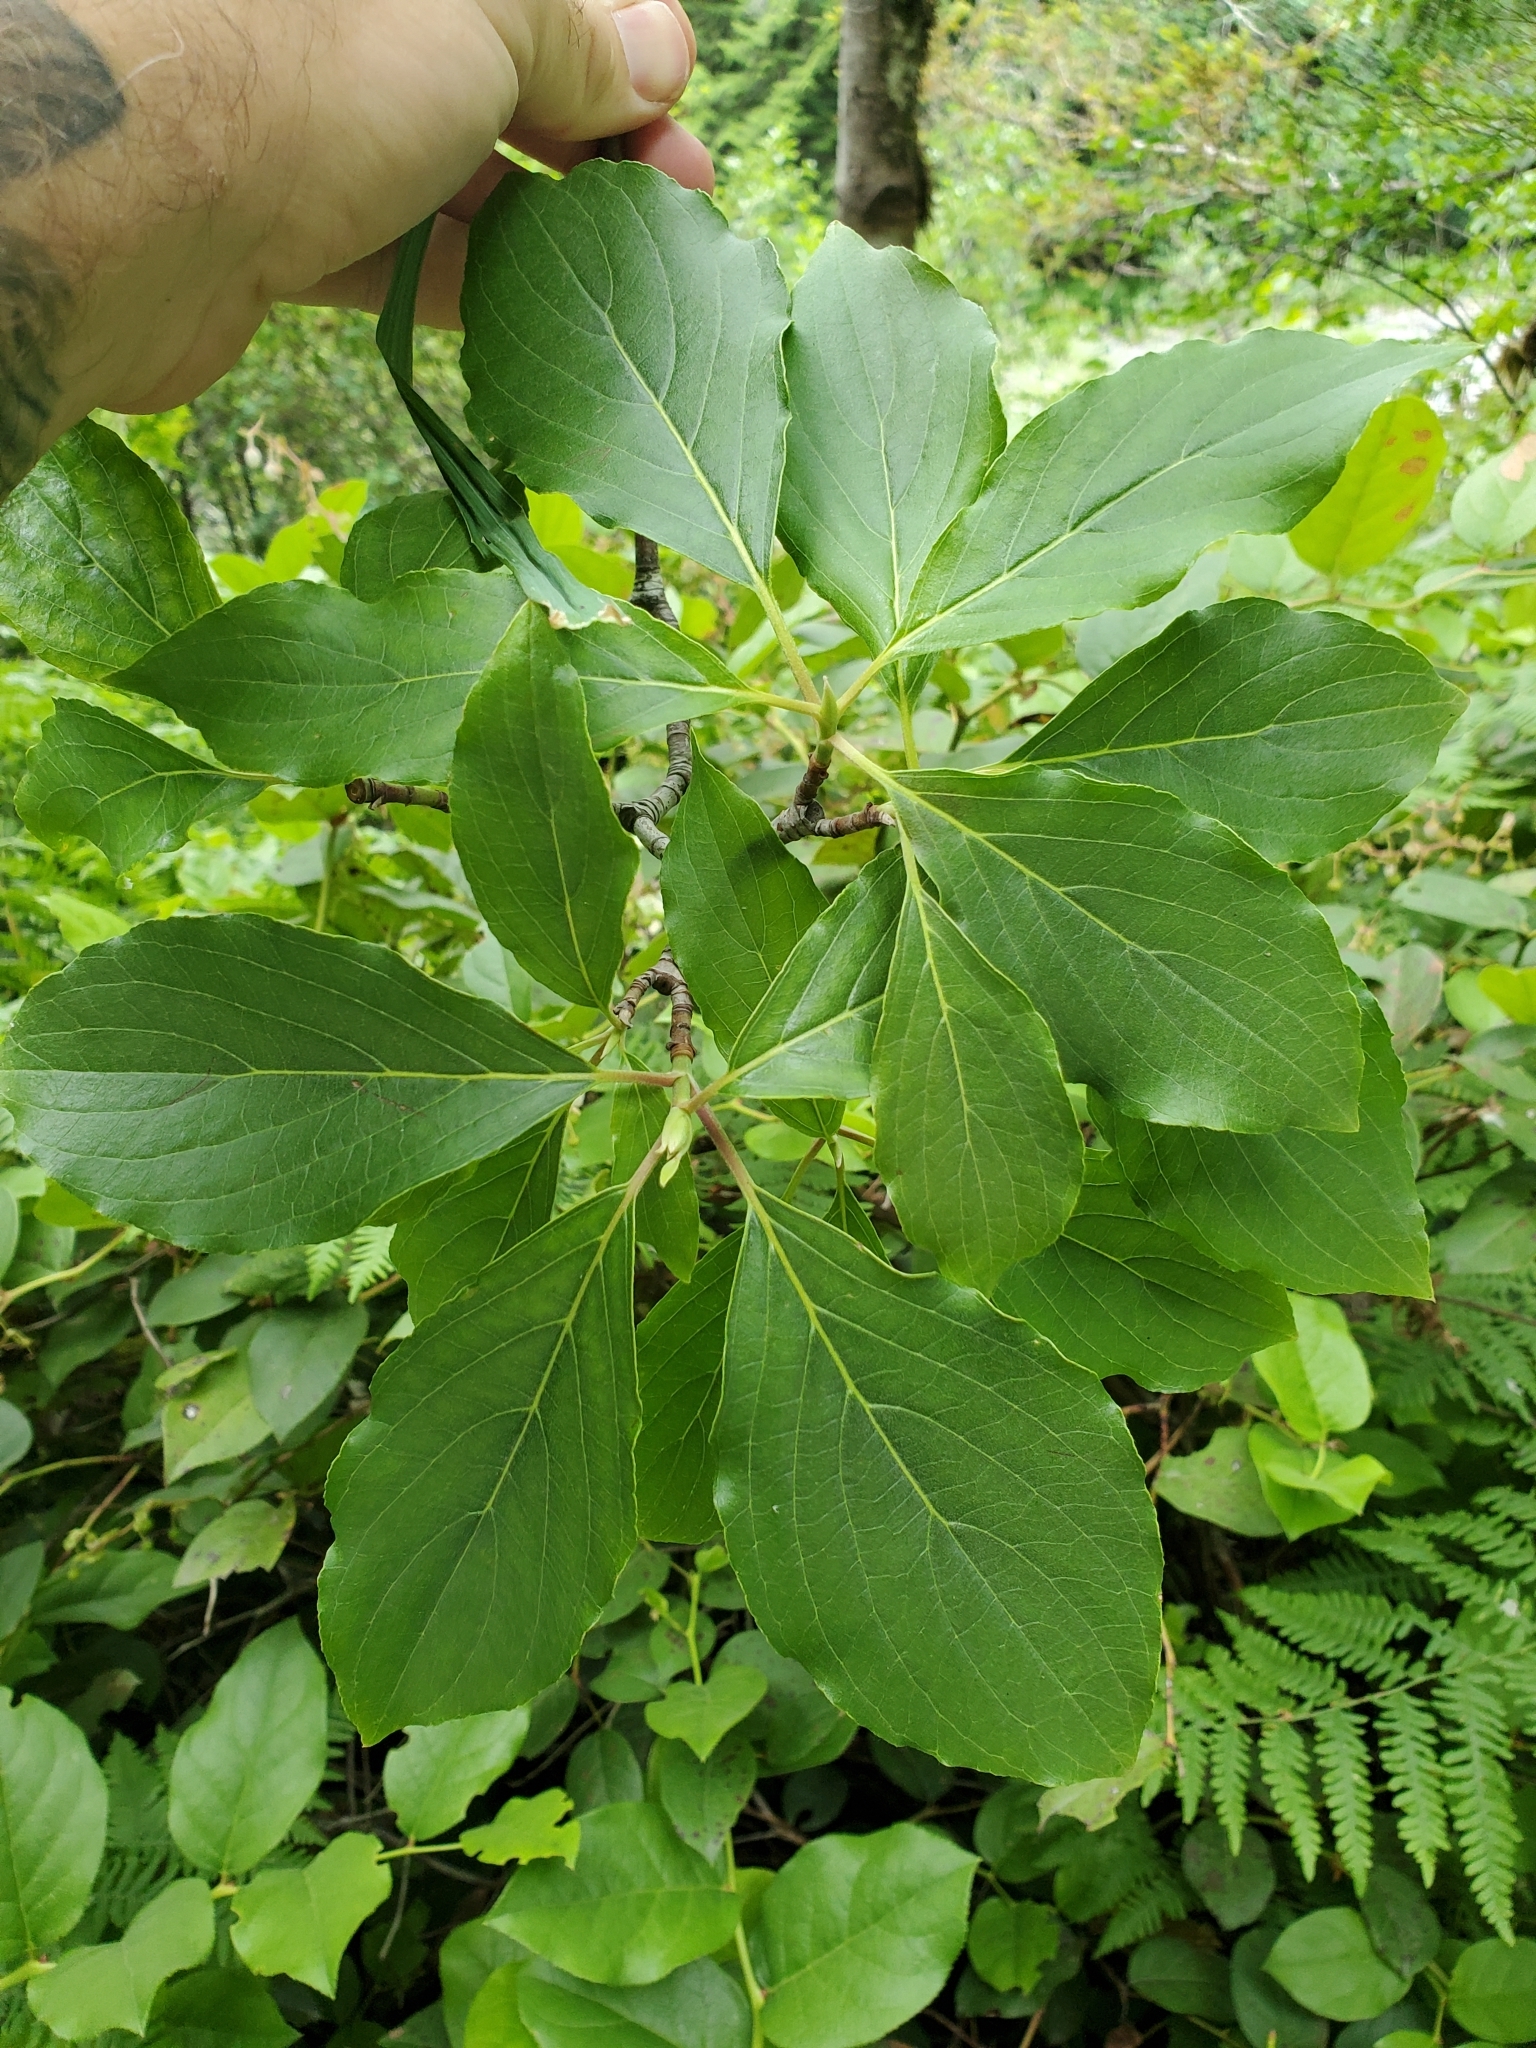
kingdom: Plantae
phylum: Tracheophyta
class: Magnoliopsida
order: Cornales
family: Cornaceae
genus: Cornus
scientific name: Cornus nuttallii
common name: Pacific dogwood
